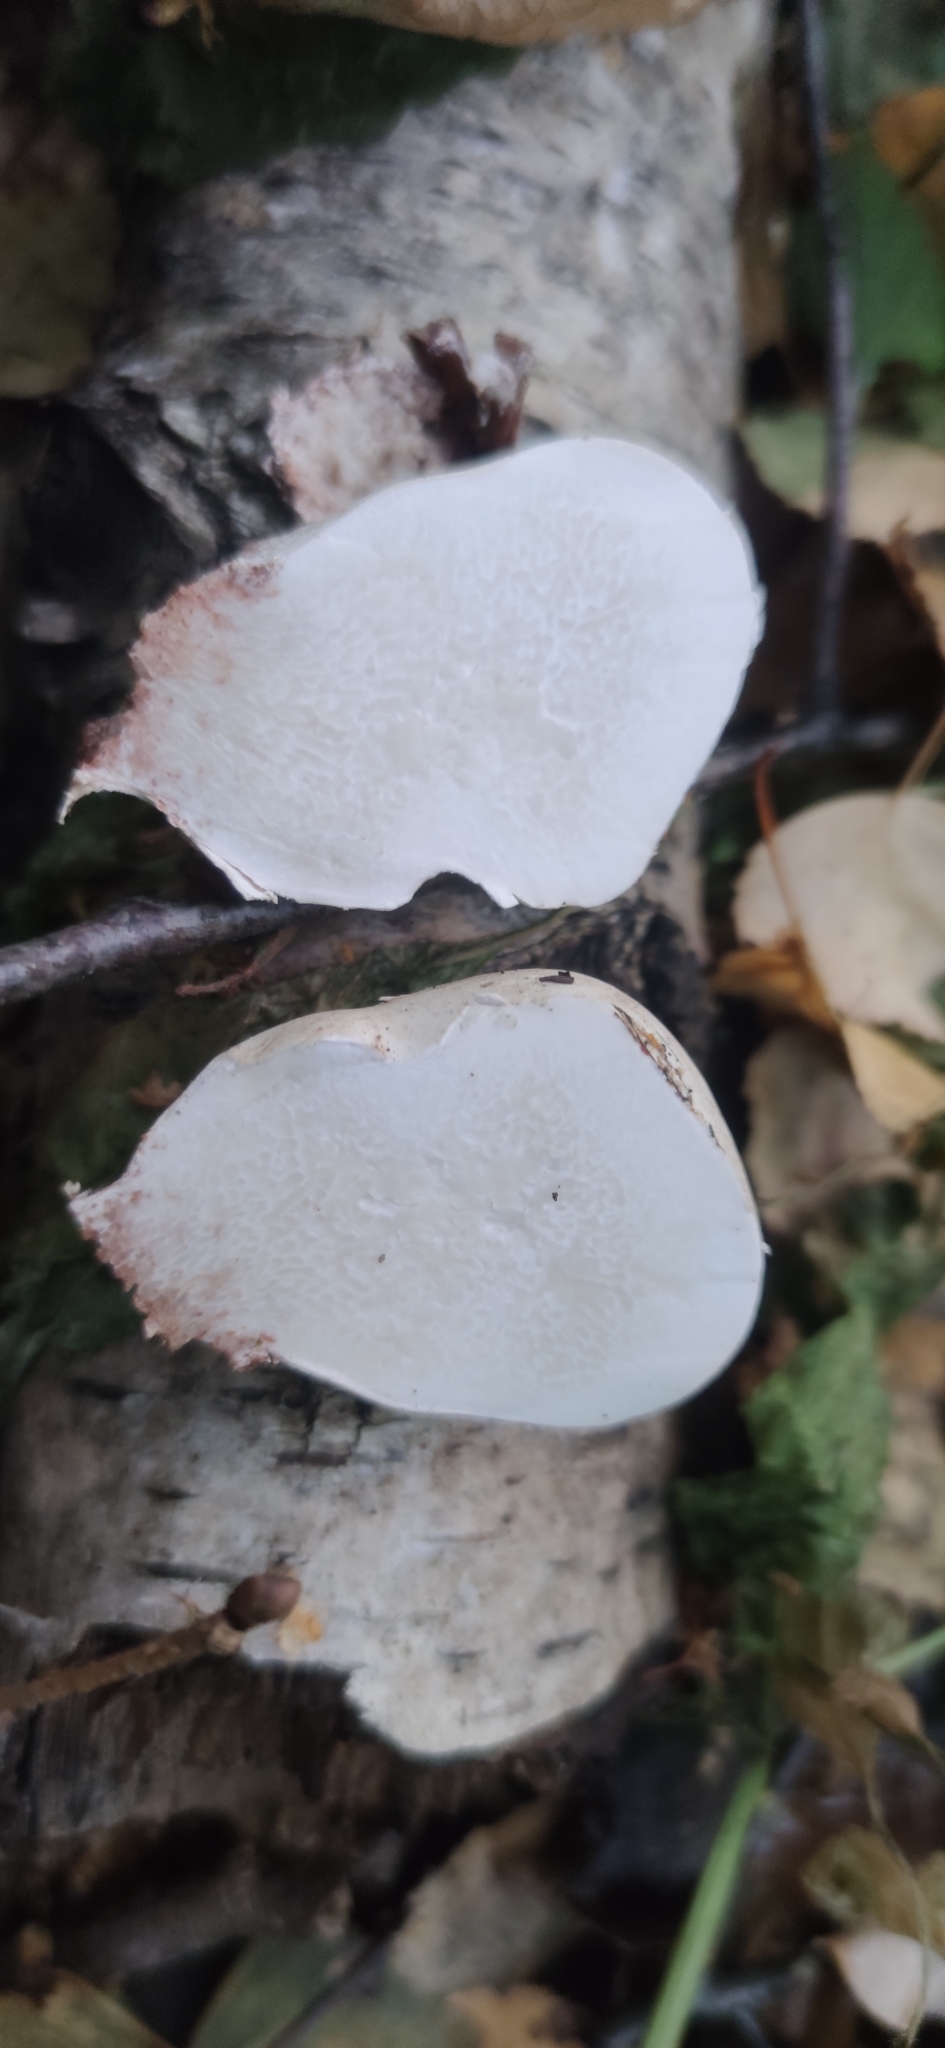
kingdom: Fungi
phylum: Basidiomycota
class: Agaricomycetes
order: Polyporales
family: Fomitopsidaceae
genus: Fomitopsis
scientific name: Fomitopsis betulina
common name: Birch polypore
